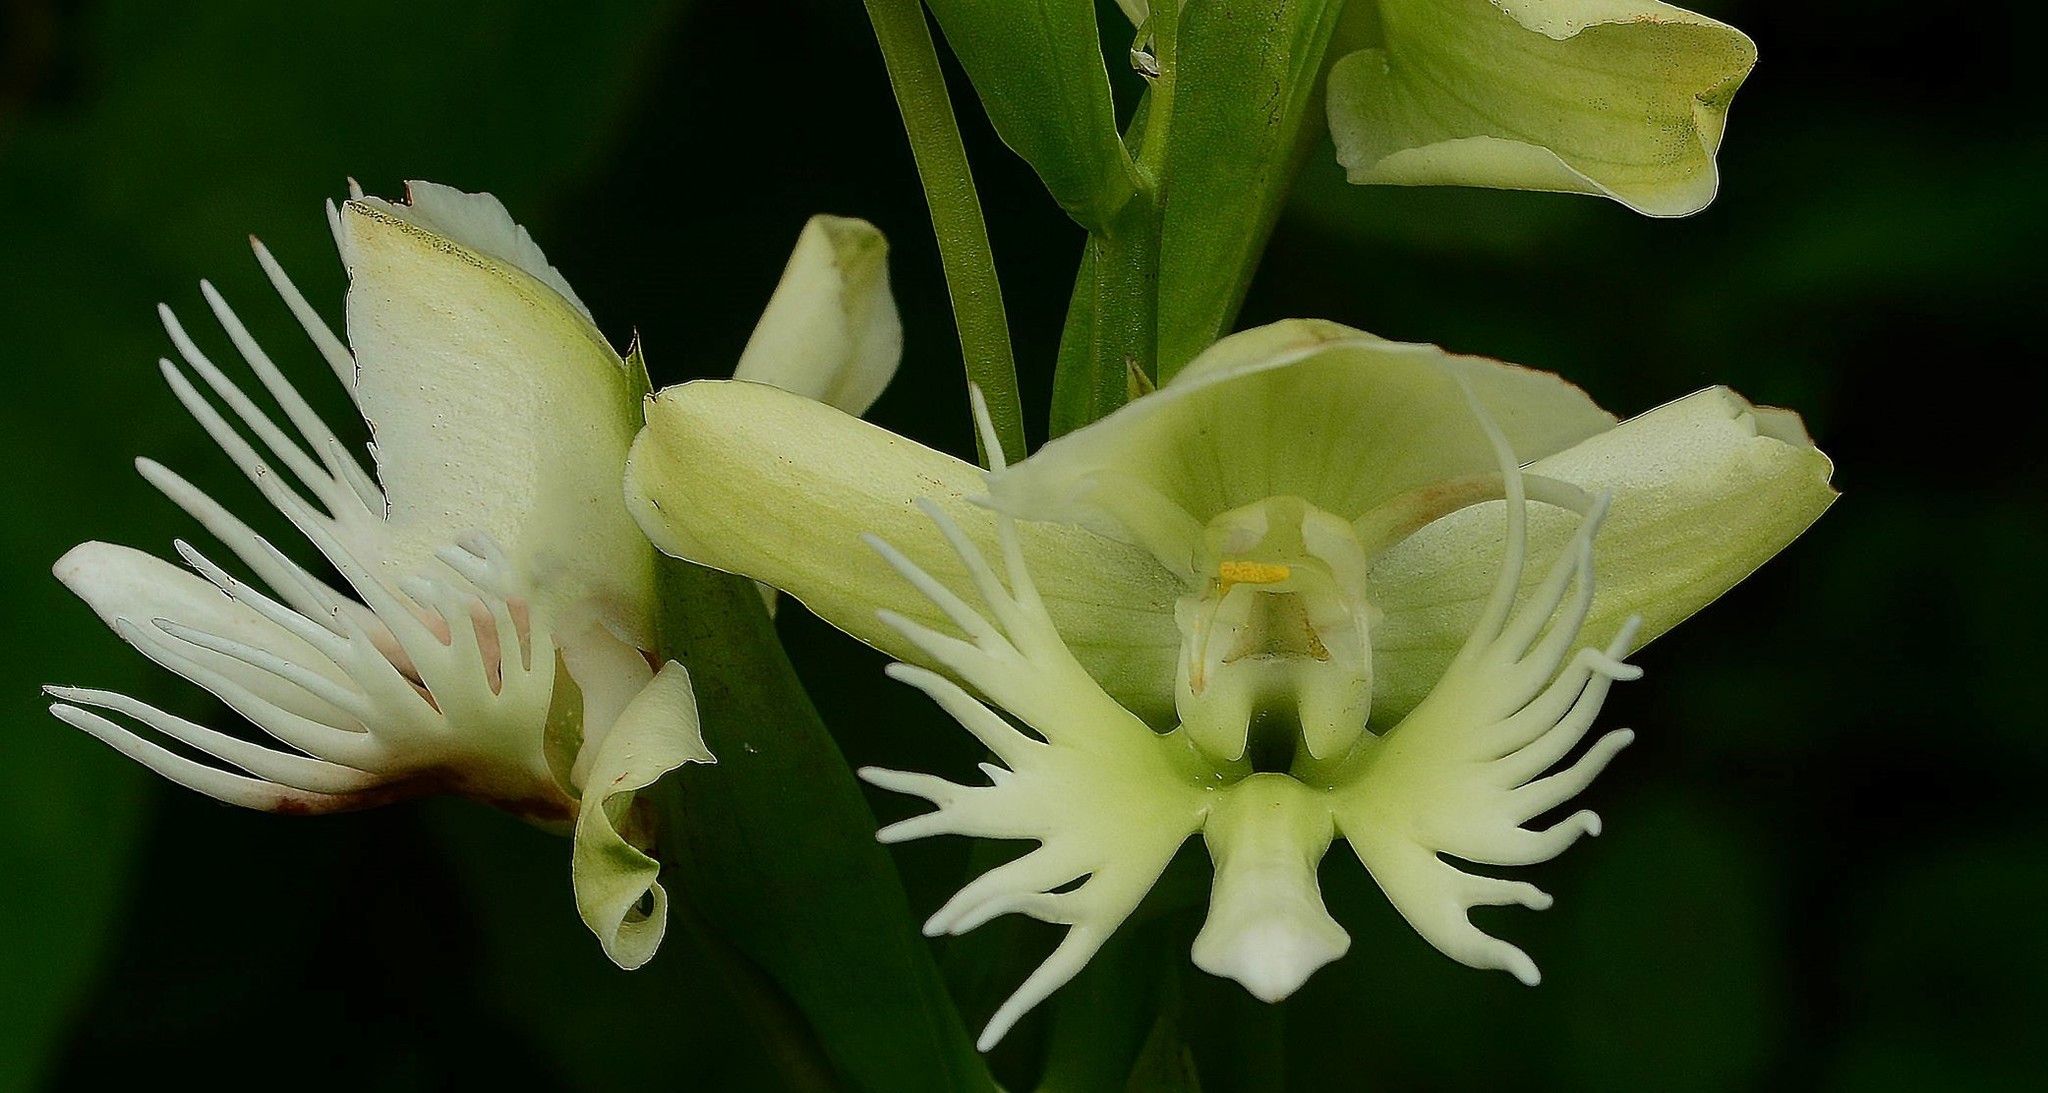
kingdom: Plantae
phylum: Tracheophyta
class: Liliopsida
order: Asparagales
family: Orchidaceae
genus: Pecteilis
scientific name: Pecteilis gigantea
